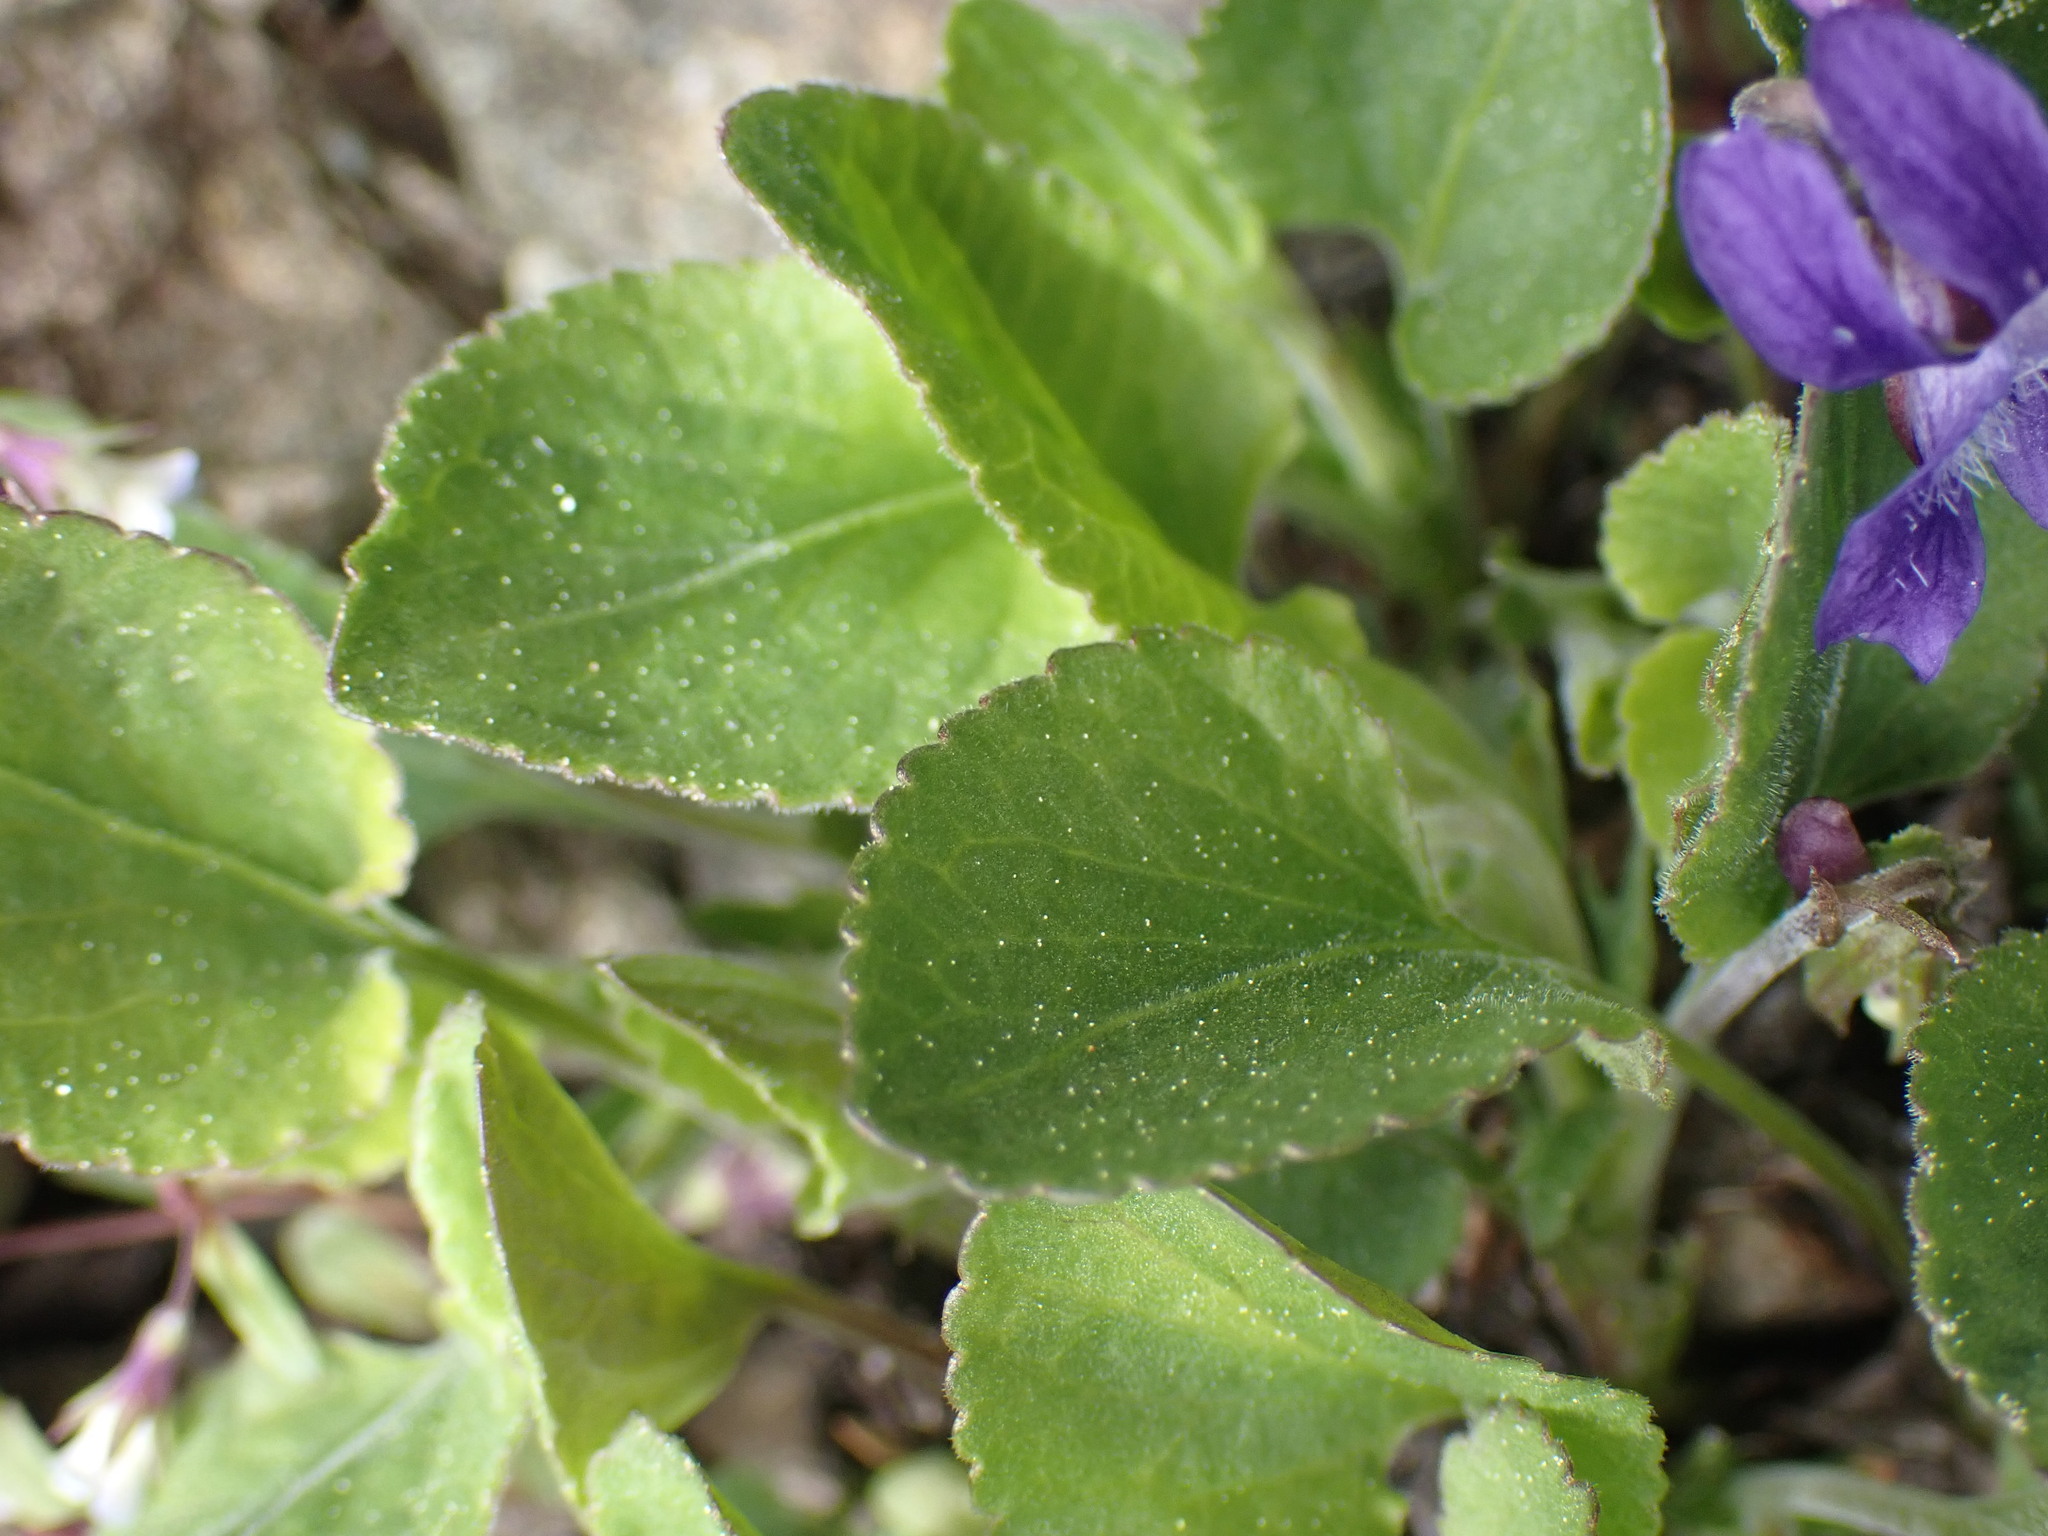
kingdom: Plantae
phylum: Tracheophyta
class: Magnoliopsida
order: Malpighiales
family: Violaceae
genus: Viola
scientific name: Viola adunca
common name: Sand violet
